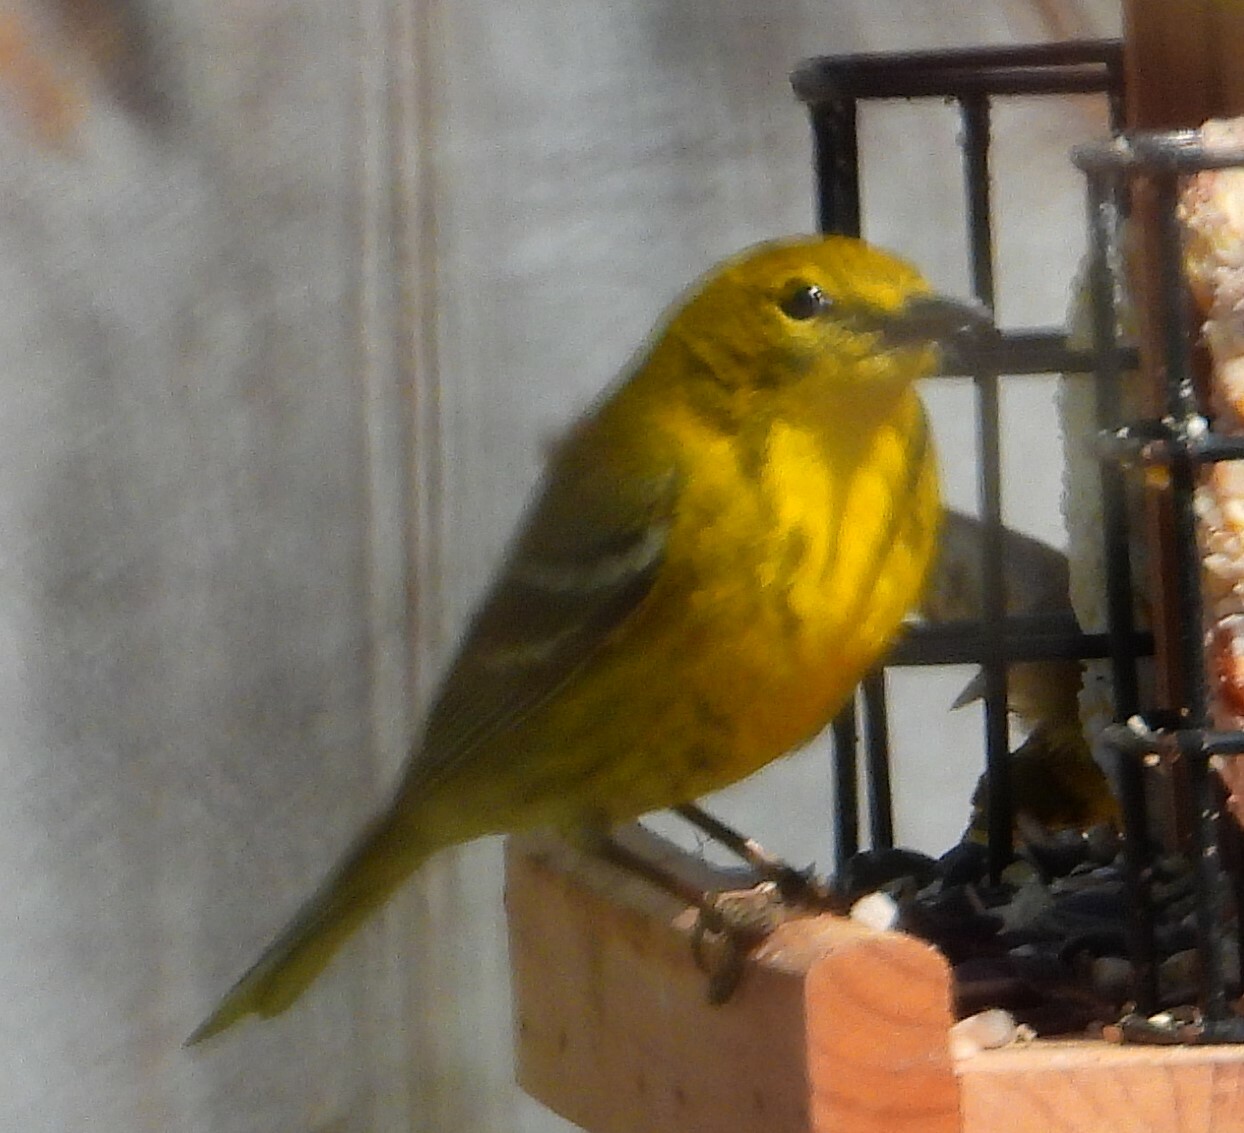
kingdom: Animalia
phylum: Chordata
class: Aves
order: Passeriformes
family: Parulidae
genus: Setophaga
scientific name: Setophaga pinus
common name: Pine warbler
